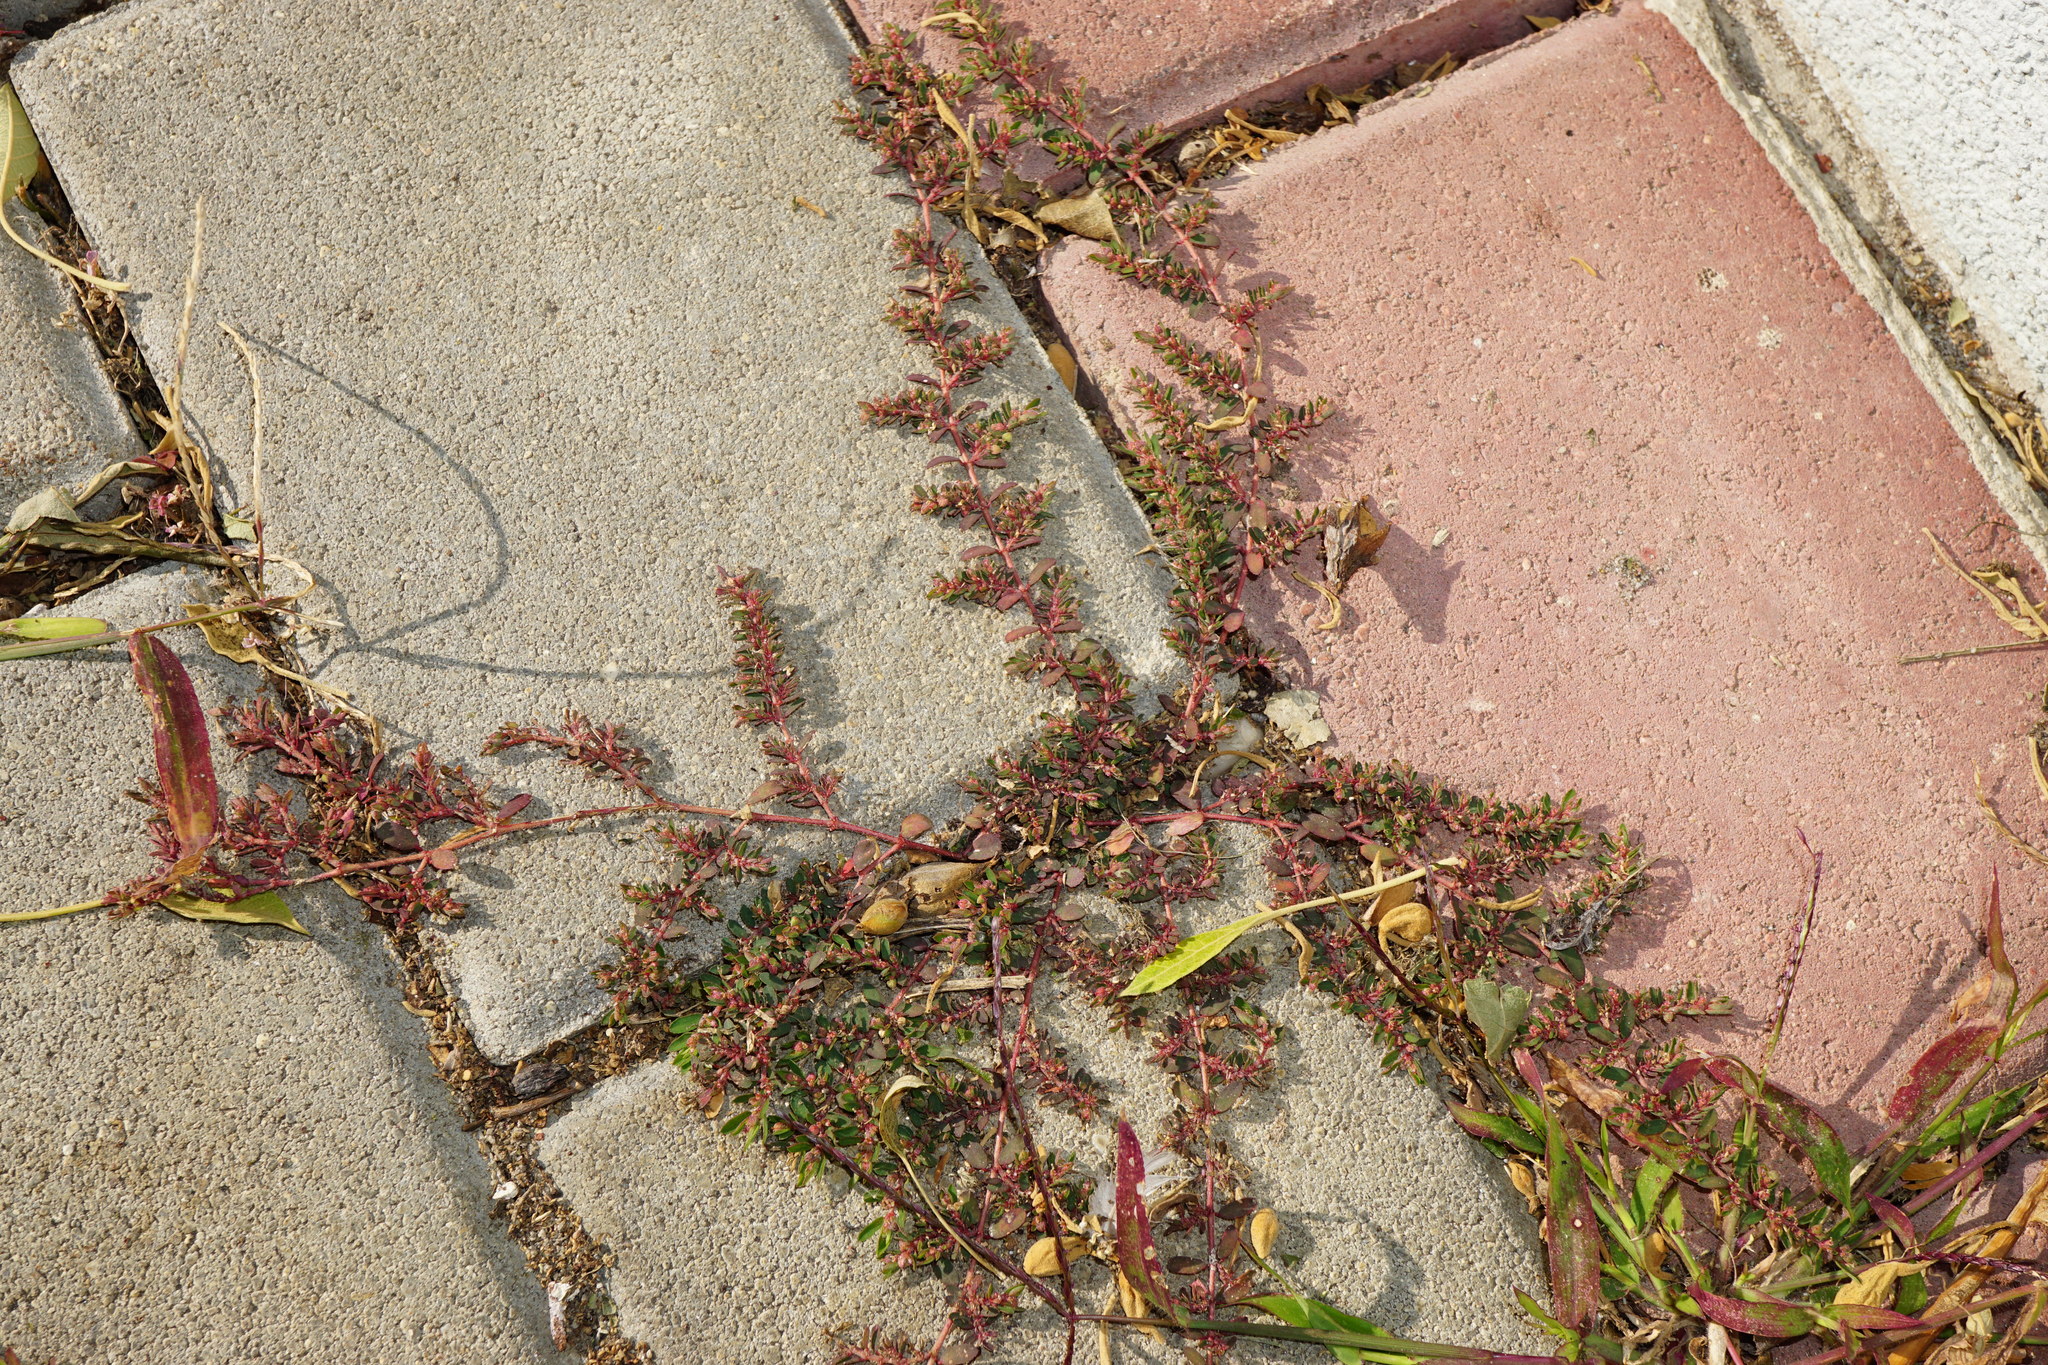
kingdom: Plantae
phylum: Tracheophyta
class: Magnoliopsida
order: Malpighiales
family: Euphorbiaceae
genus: Euphorbia
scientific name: Euphorbia maculata
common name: Spotted spurge
